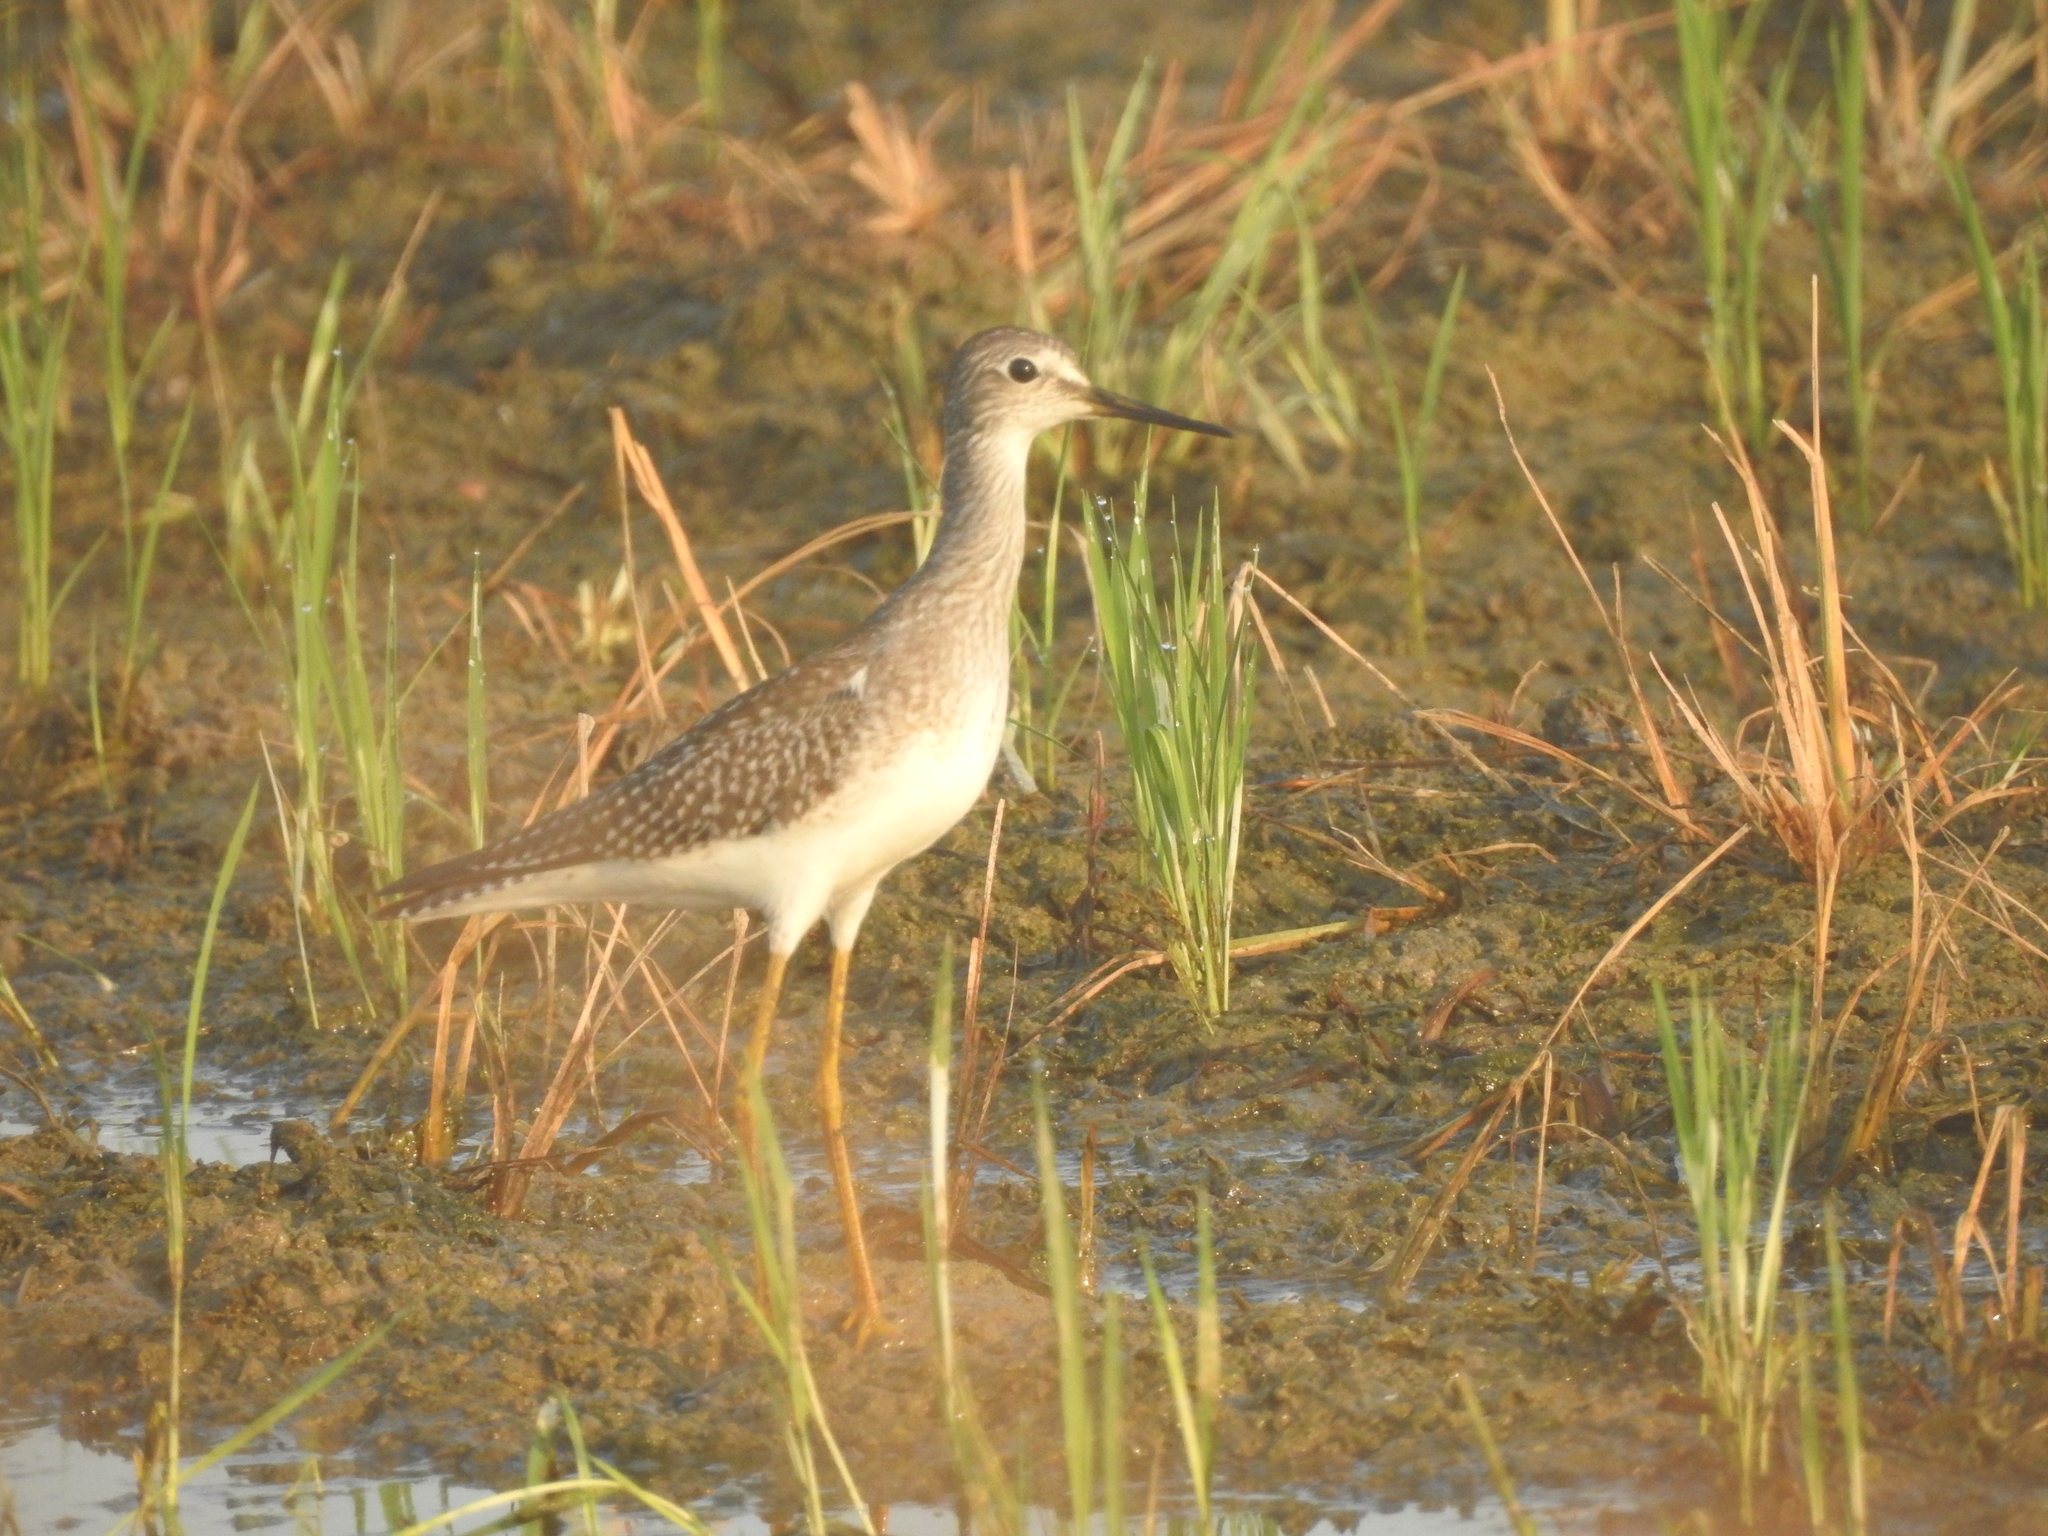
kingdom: Animalia
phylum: Chordata
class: Aves
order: Charadriiformes
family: Scolopacidae
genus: Tringa
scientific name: Tringa flavipes
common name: Lesser yellowlegs
